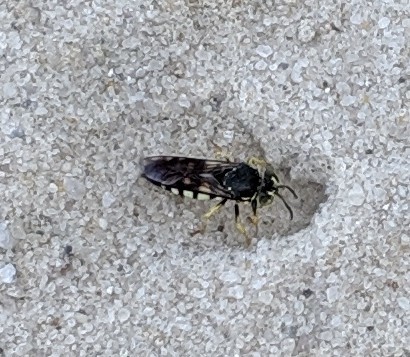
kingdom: Animalia
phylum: Arthropoda
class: Insecta
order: Hymenoptera
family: Crabronidae
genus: Bicyrtes
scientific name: Bicyrtes quadrifasciatus
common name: Four-banded stink bug hunter wasp
